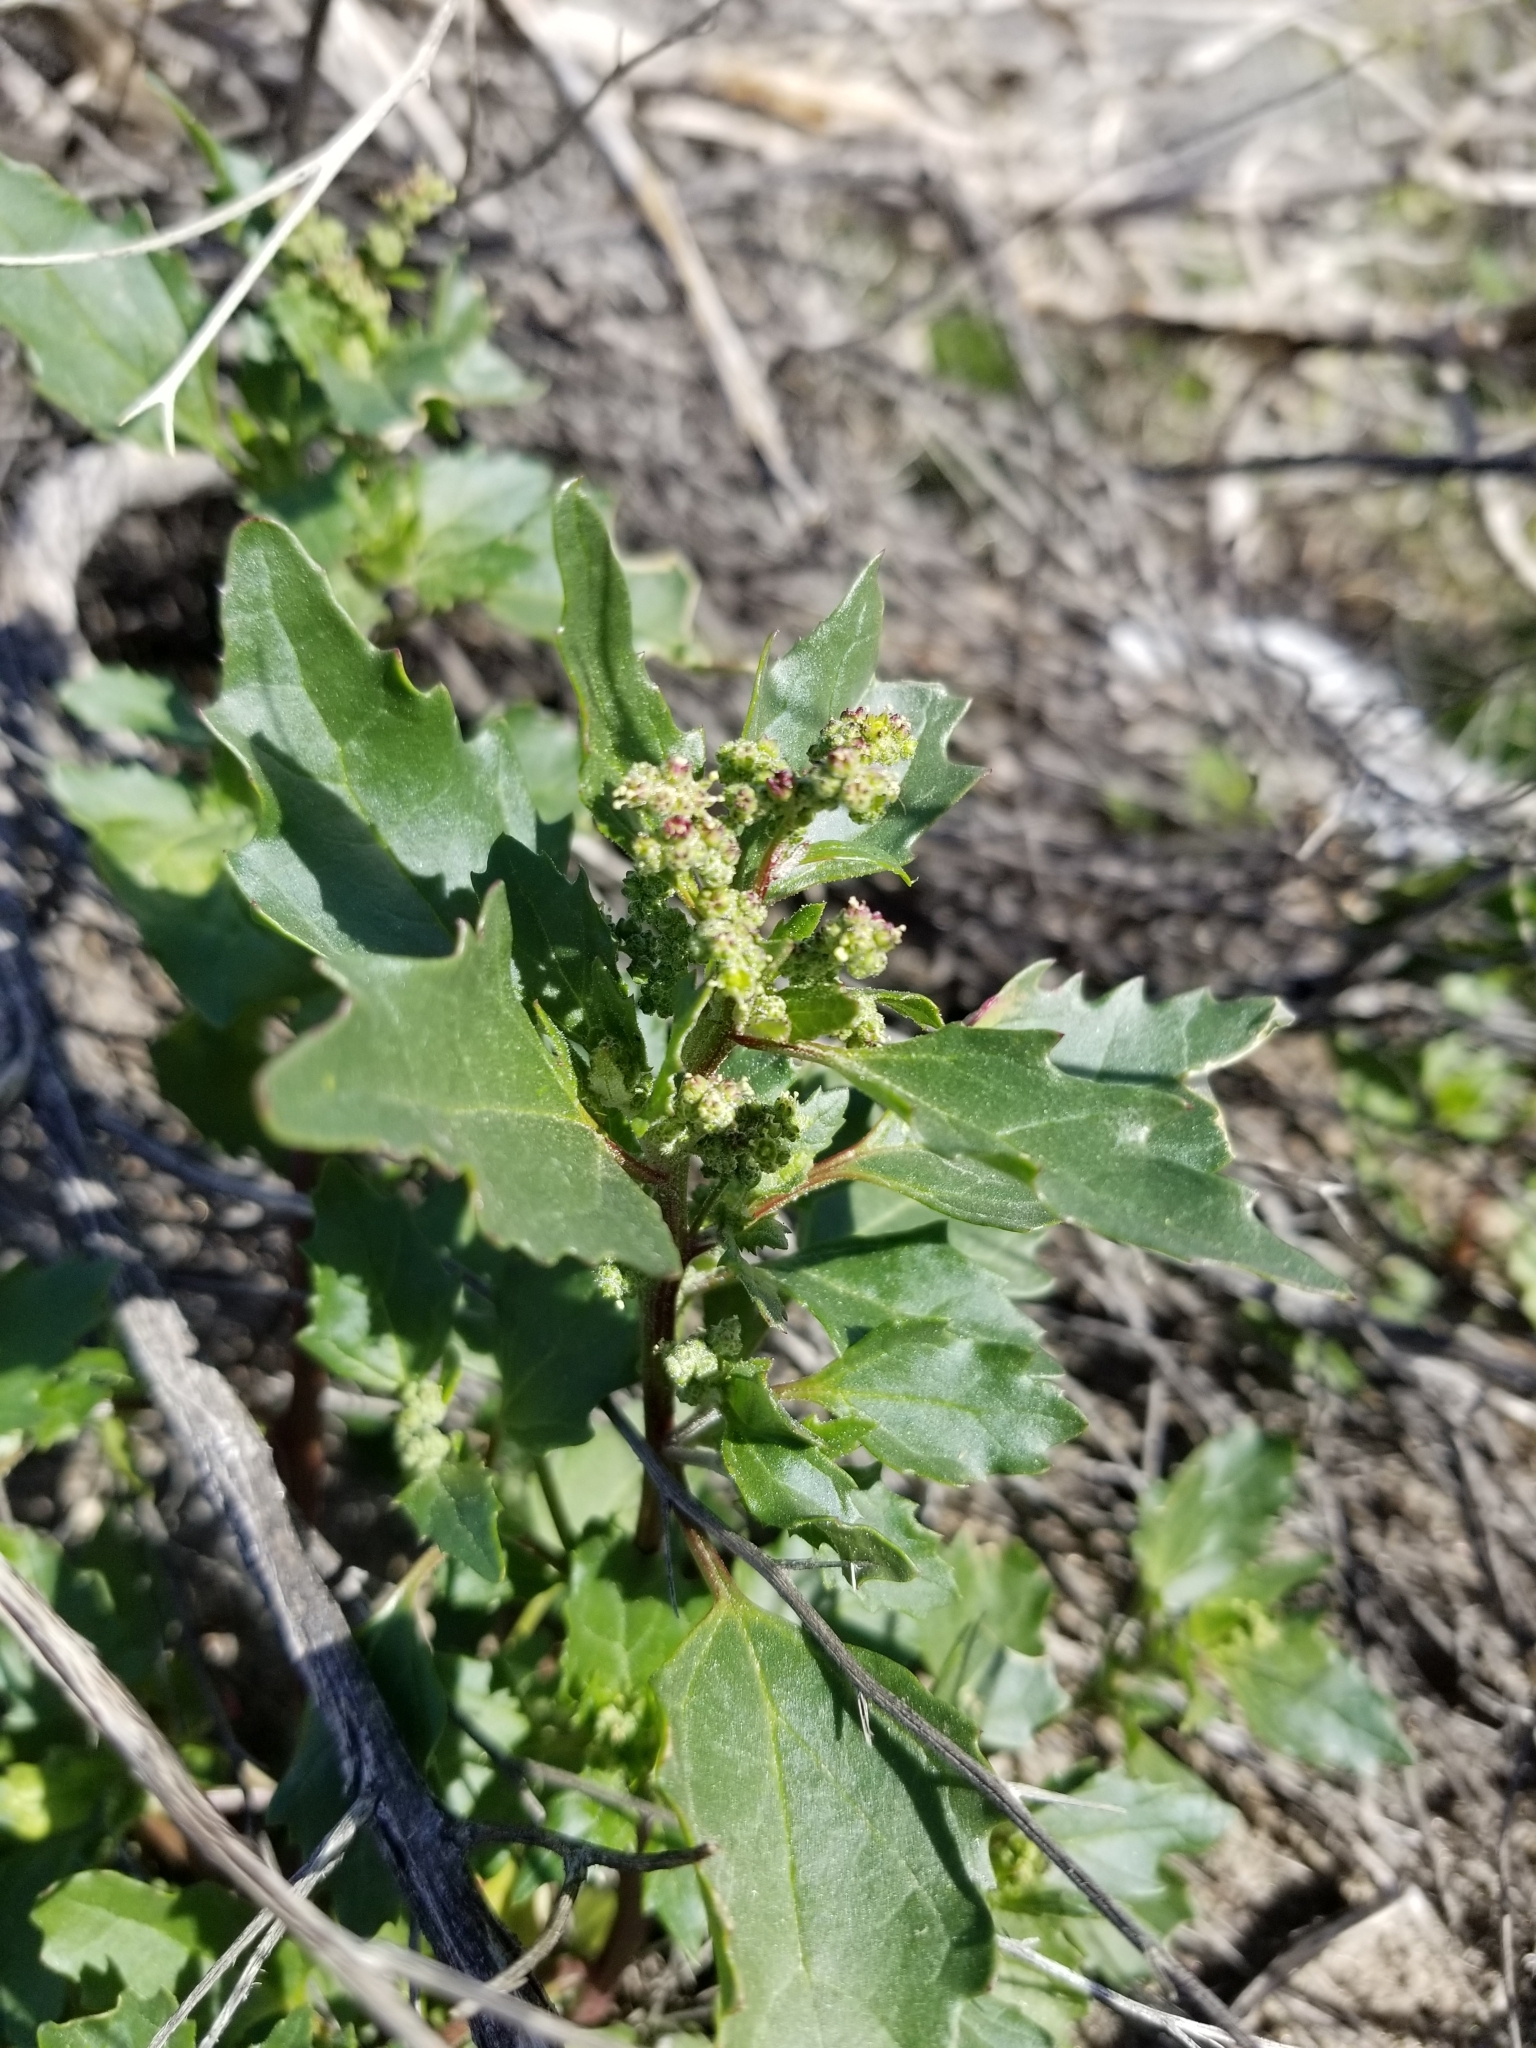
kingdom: Plantae
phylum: Tracheophyta
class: Magnoliopsida
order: Caryophyllales
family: Amaranthaceae
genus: Chenopodiastrum
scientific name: Chenopodiastrum murale
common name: Sowbane
